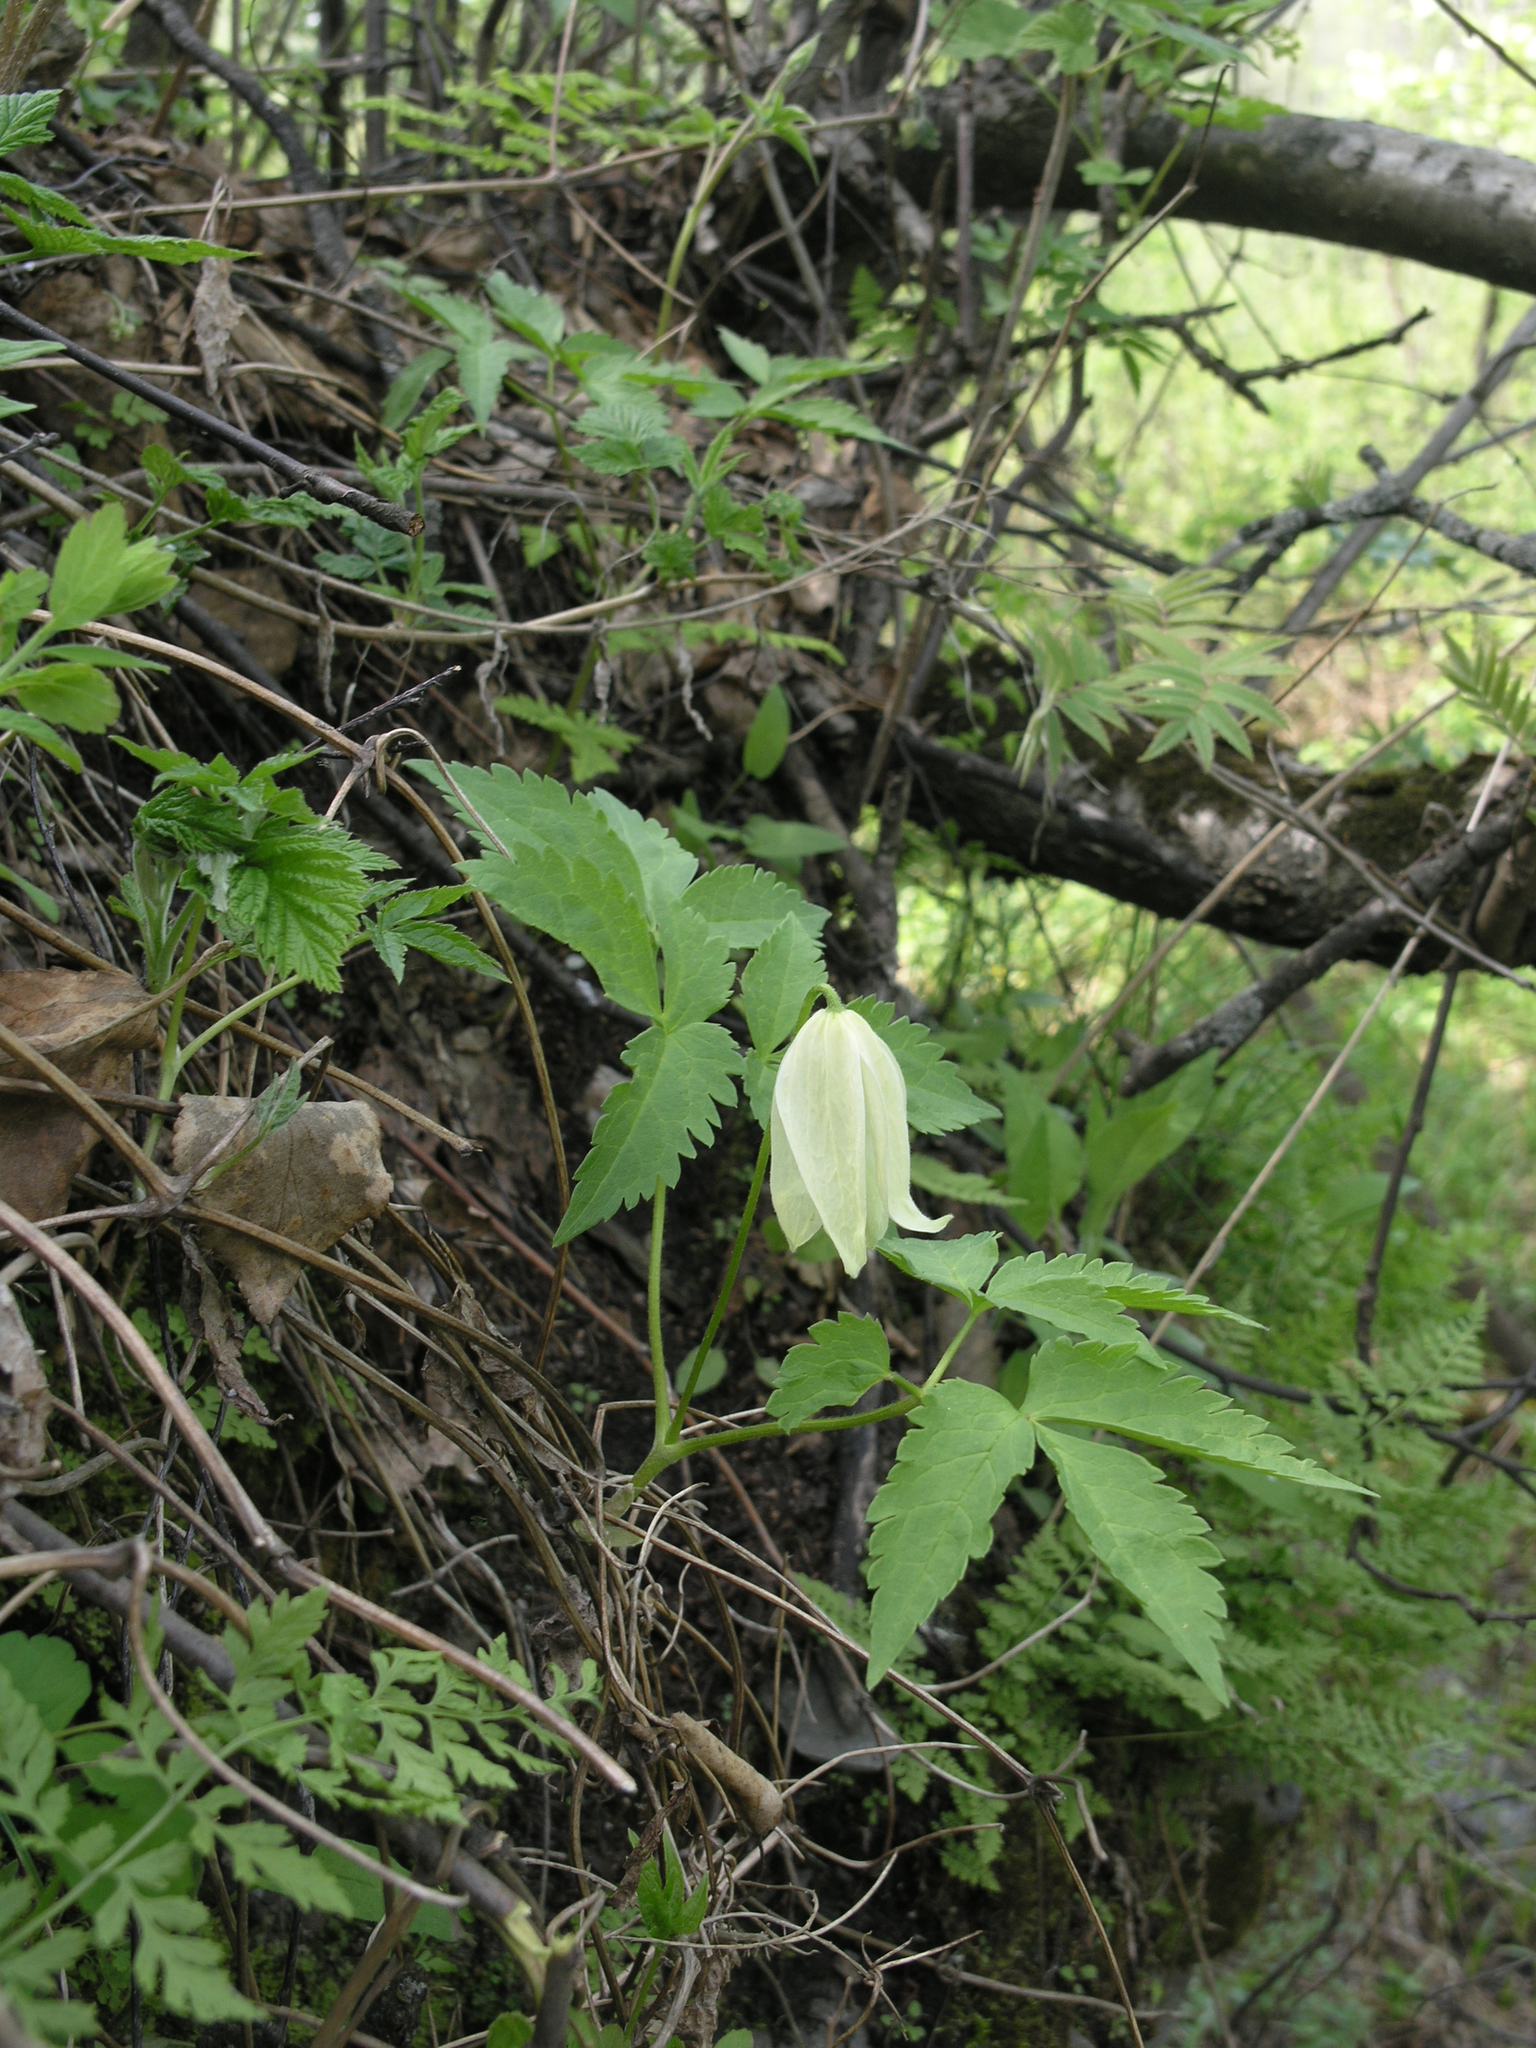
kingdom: Plantae
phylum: Tracheophyta
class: Magnoliopsida
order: Ranunculales
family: Ranunculaceae
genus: Clematis
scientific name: Clematis sibirica
